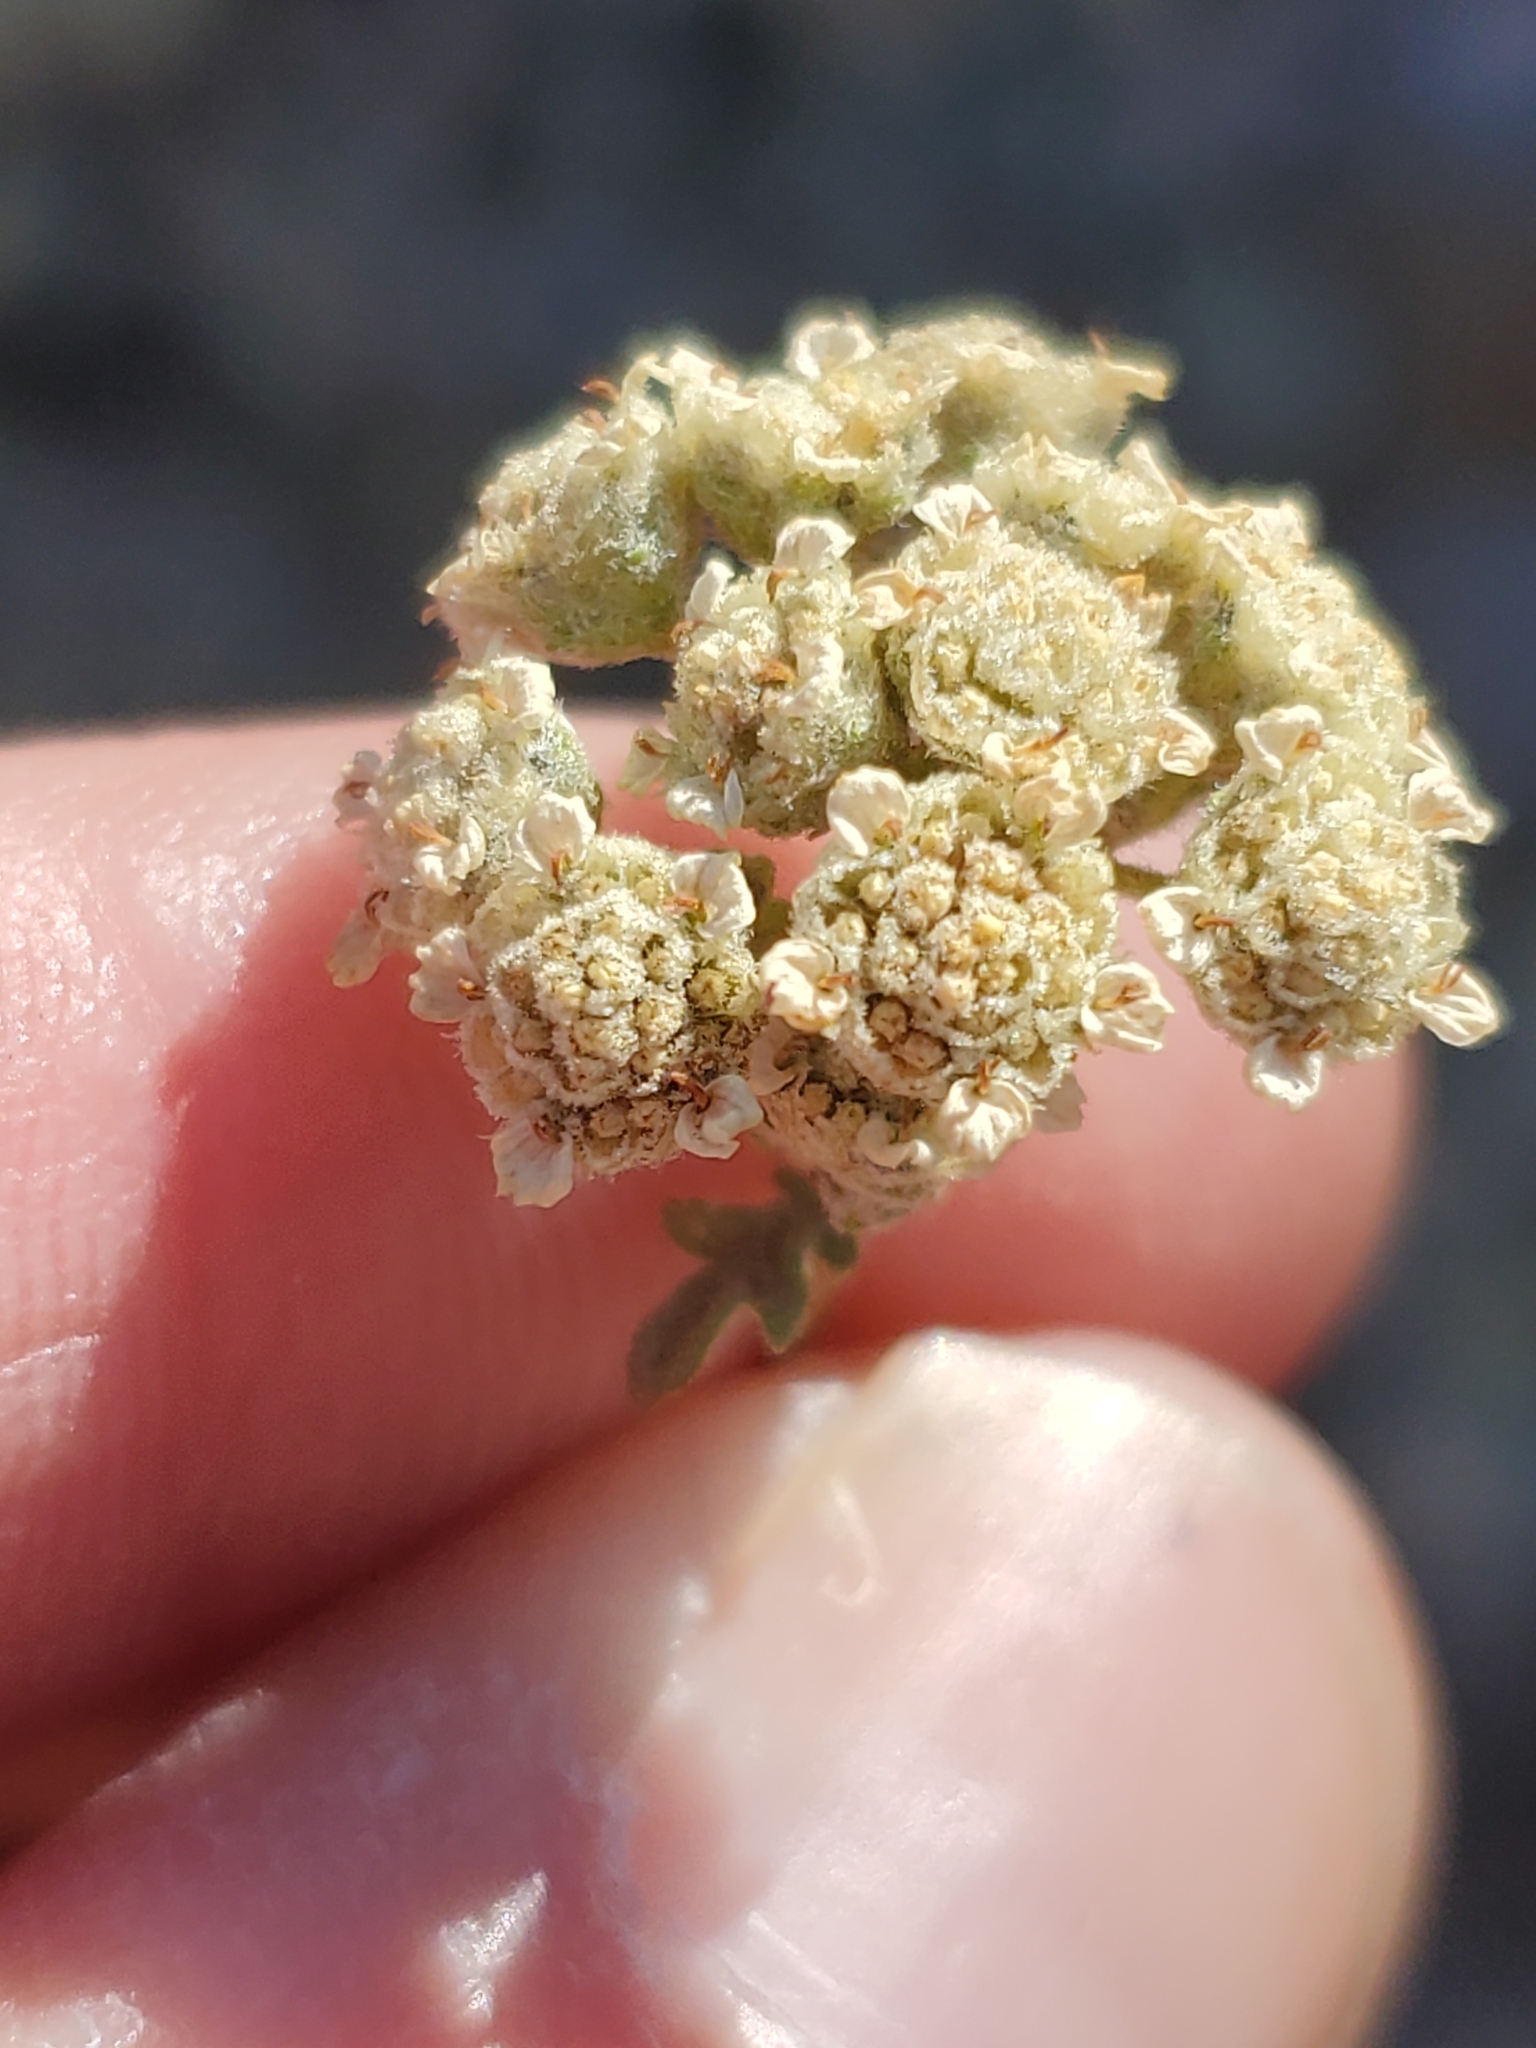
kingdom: Plantae
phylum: Tracheophyta
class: Magnoliopsida
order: Asterales
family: Asteraceae
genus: Parthenium
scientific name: Parthenium incanum
